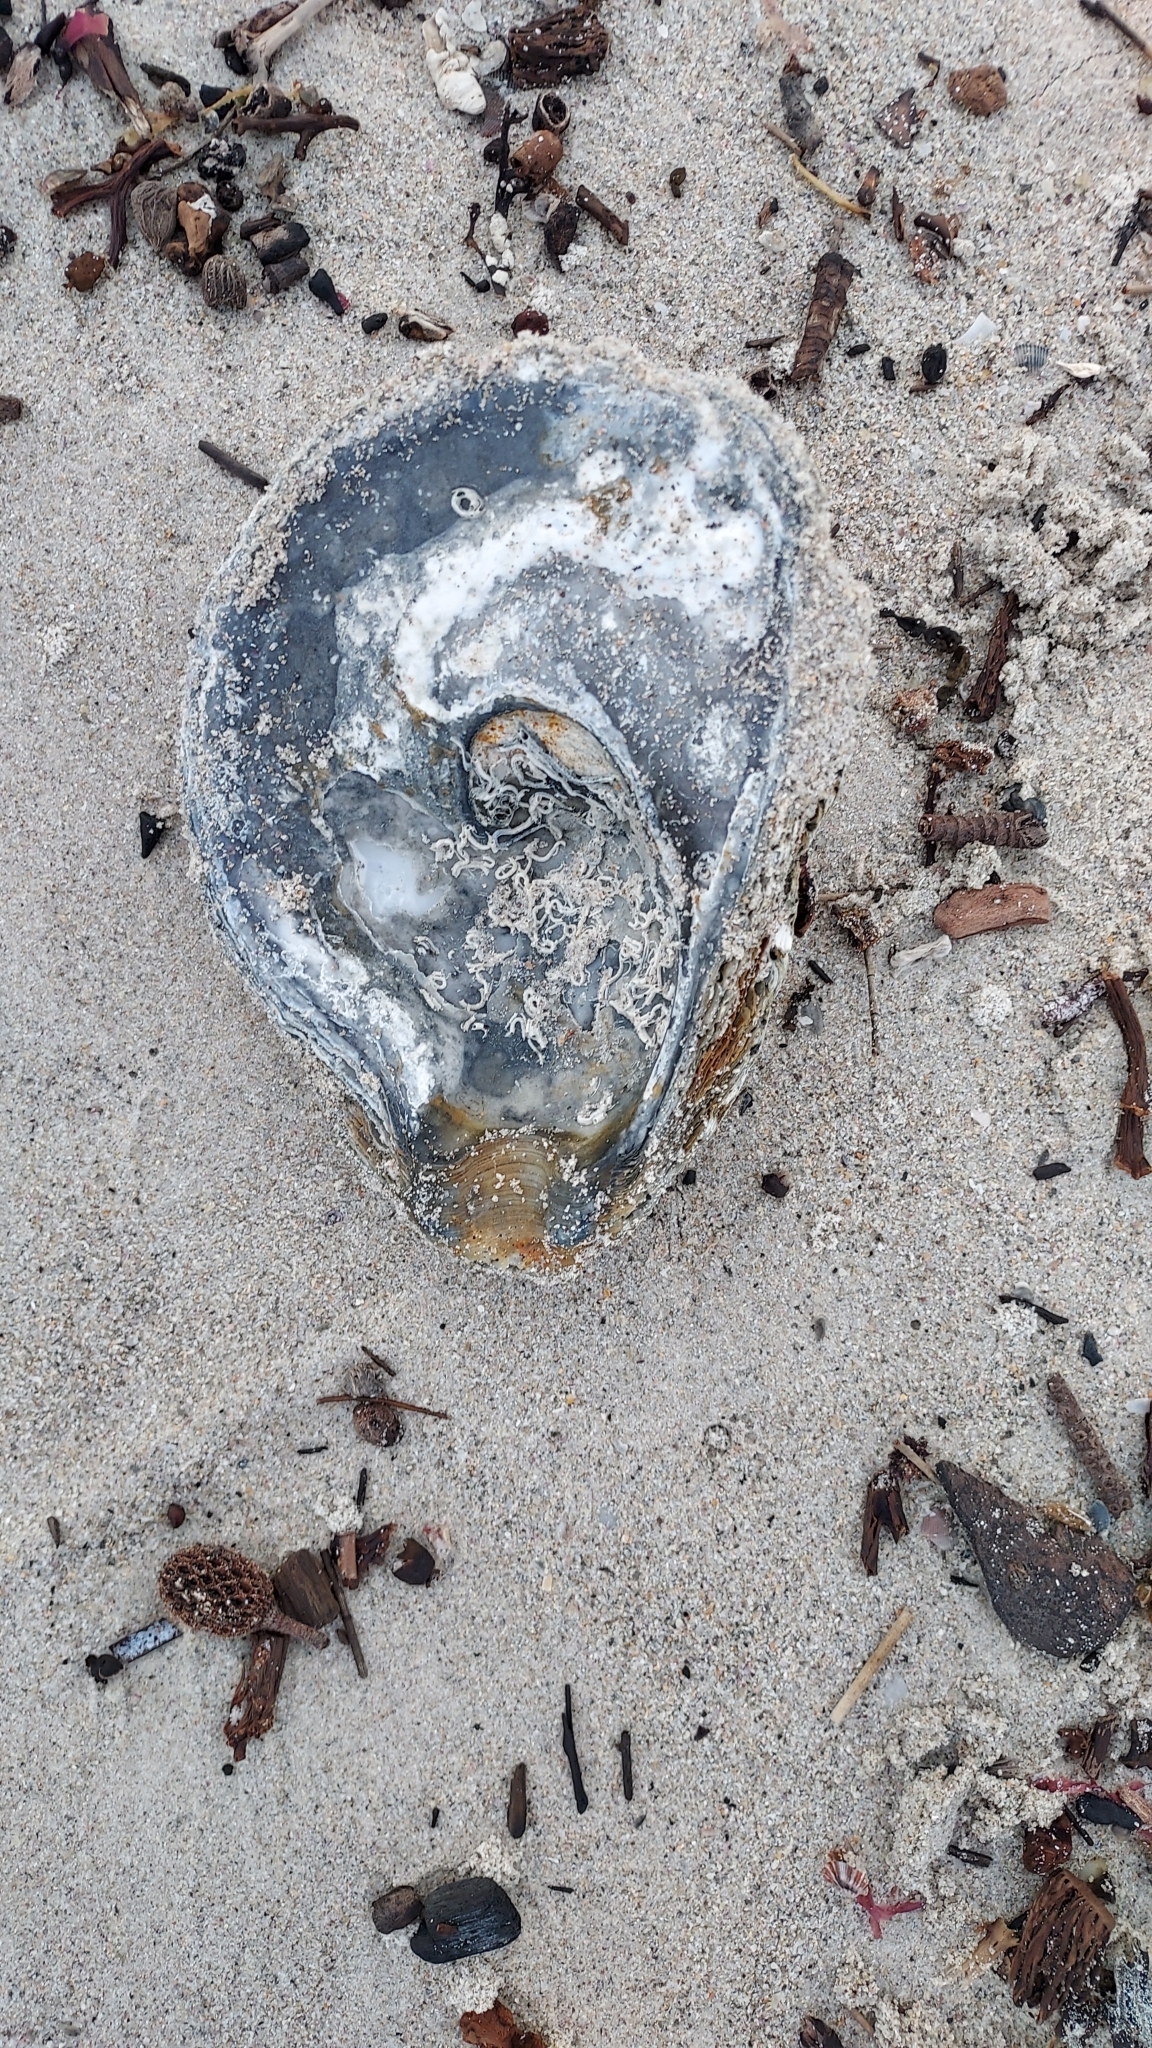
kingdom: Animalia
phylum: Mollusca
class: Bivalvia
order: Ostreida
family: Ostreidae
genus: Ostrea
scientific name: Ostrea angasi
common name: Angasi oyster
